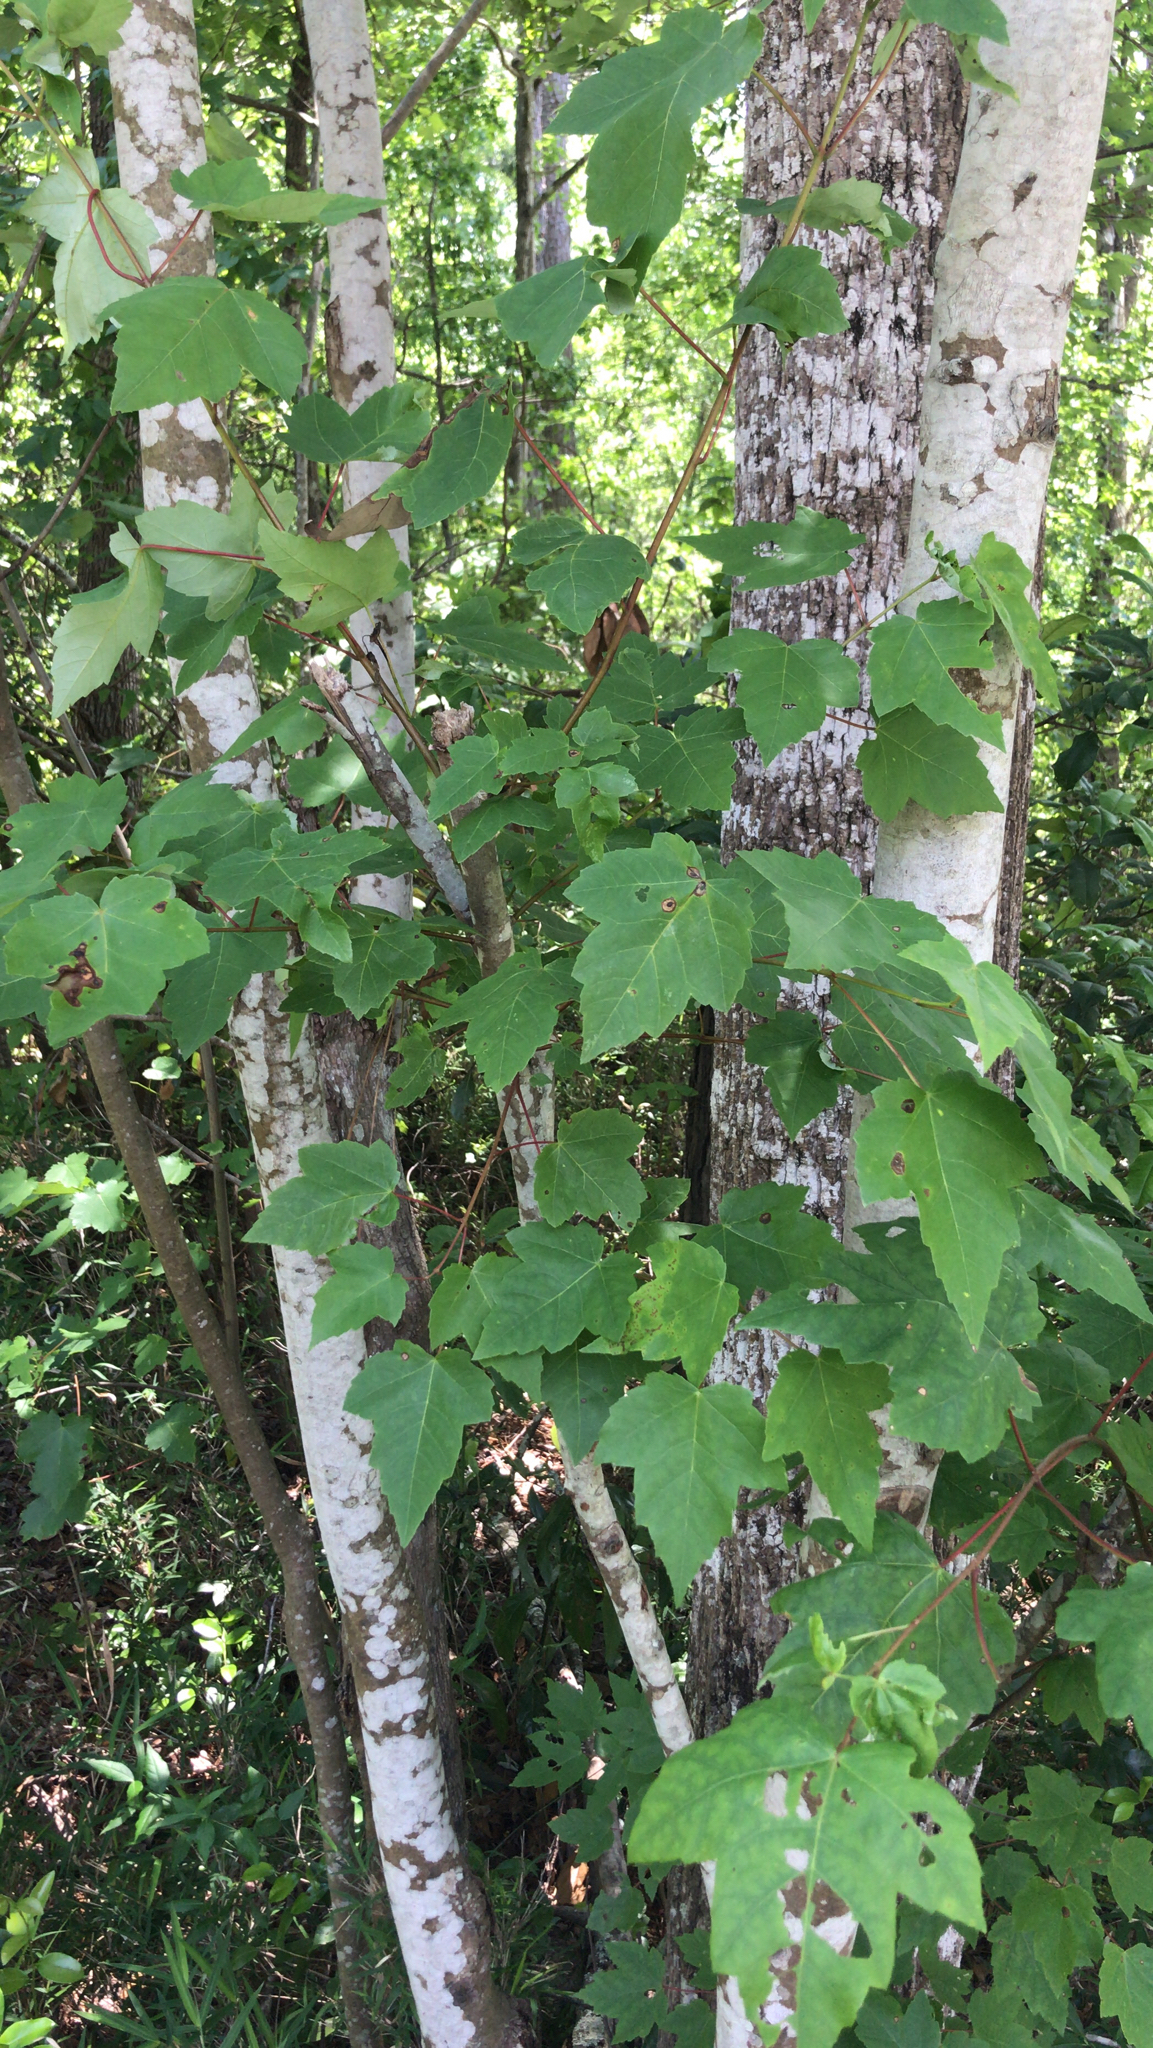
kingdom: Plantae
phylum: Tracheophyta
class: Magnoliopsida
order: Sapindales
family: Sapindaceae
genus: Acer
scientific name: Acer rubrum
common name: Red maple
